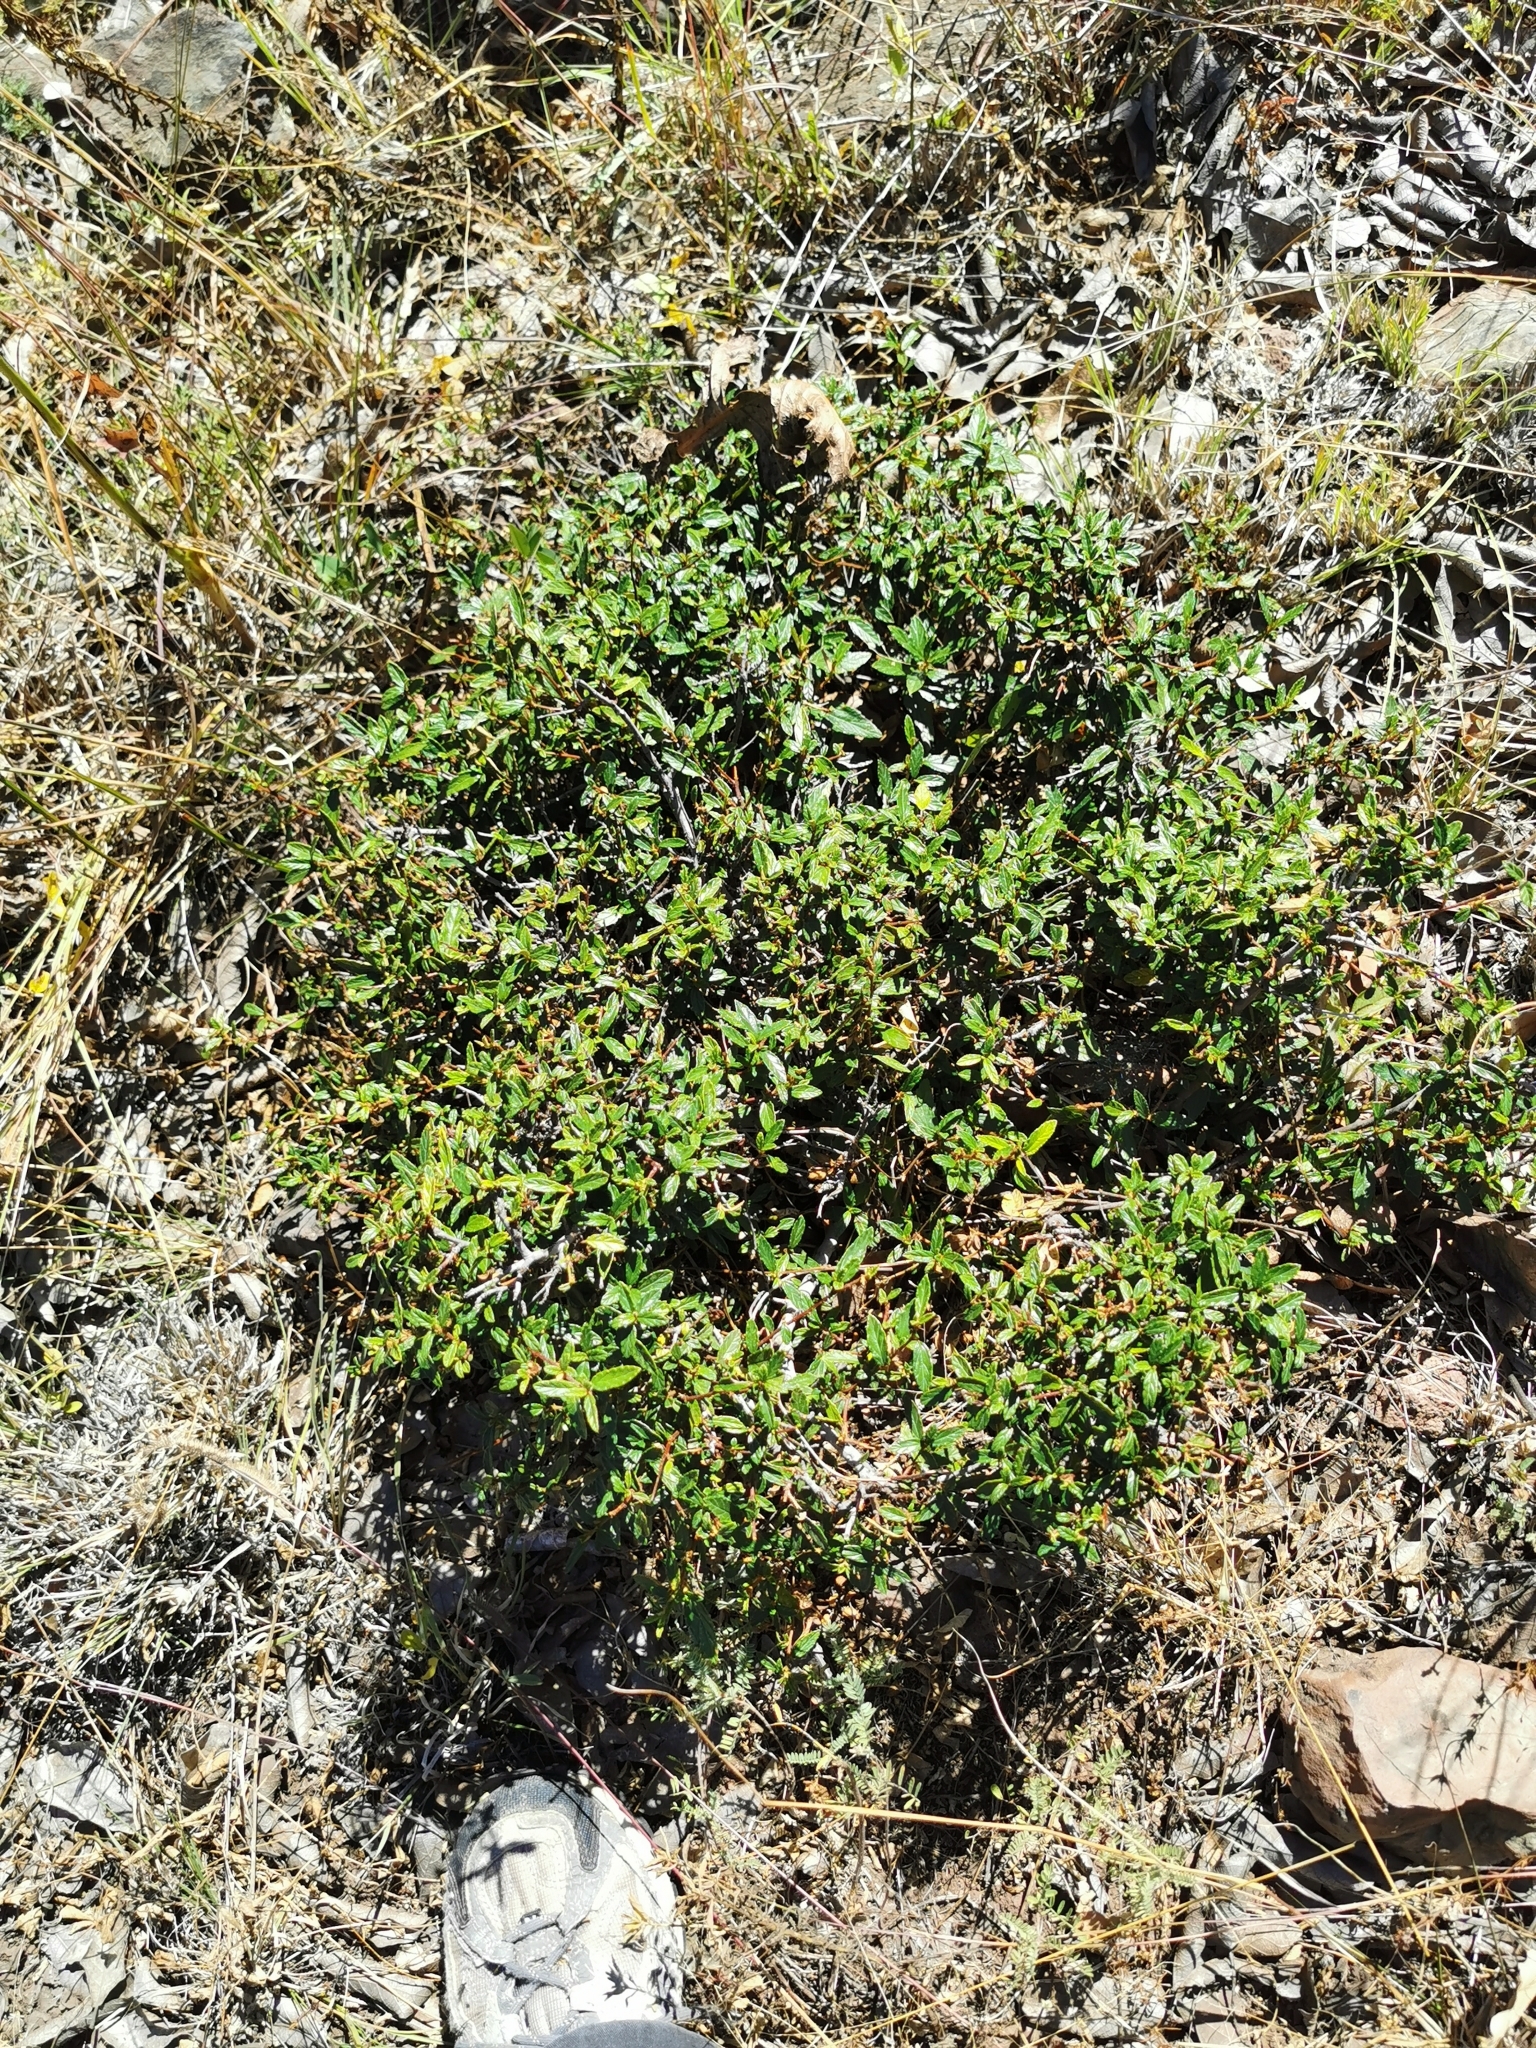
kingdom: Plantae
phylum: Tracheophyta
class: Magnoliopsida
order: Rosales
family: Rhamnaceae
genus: Ceanothus
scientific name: Ceanothus ochraceus
